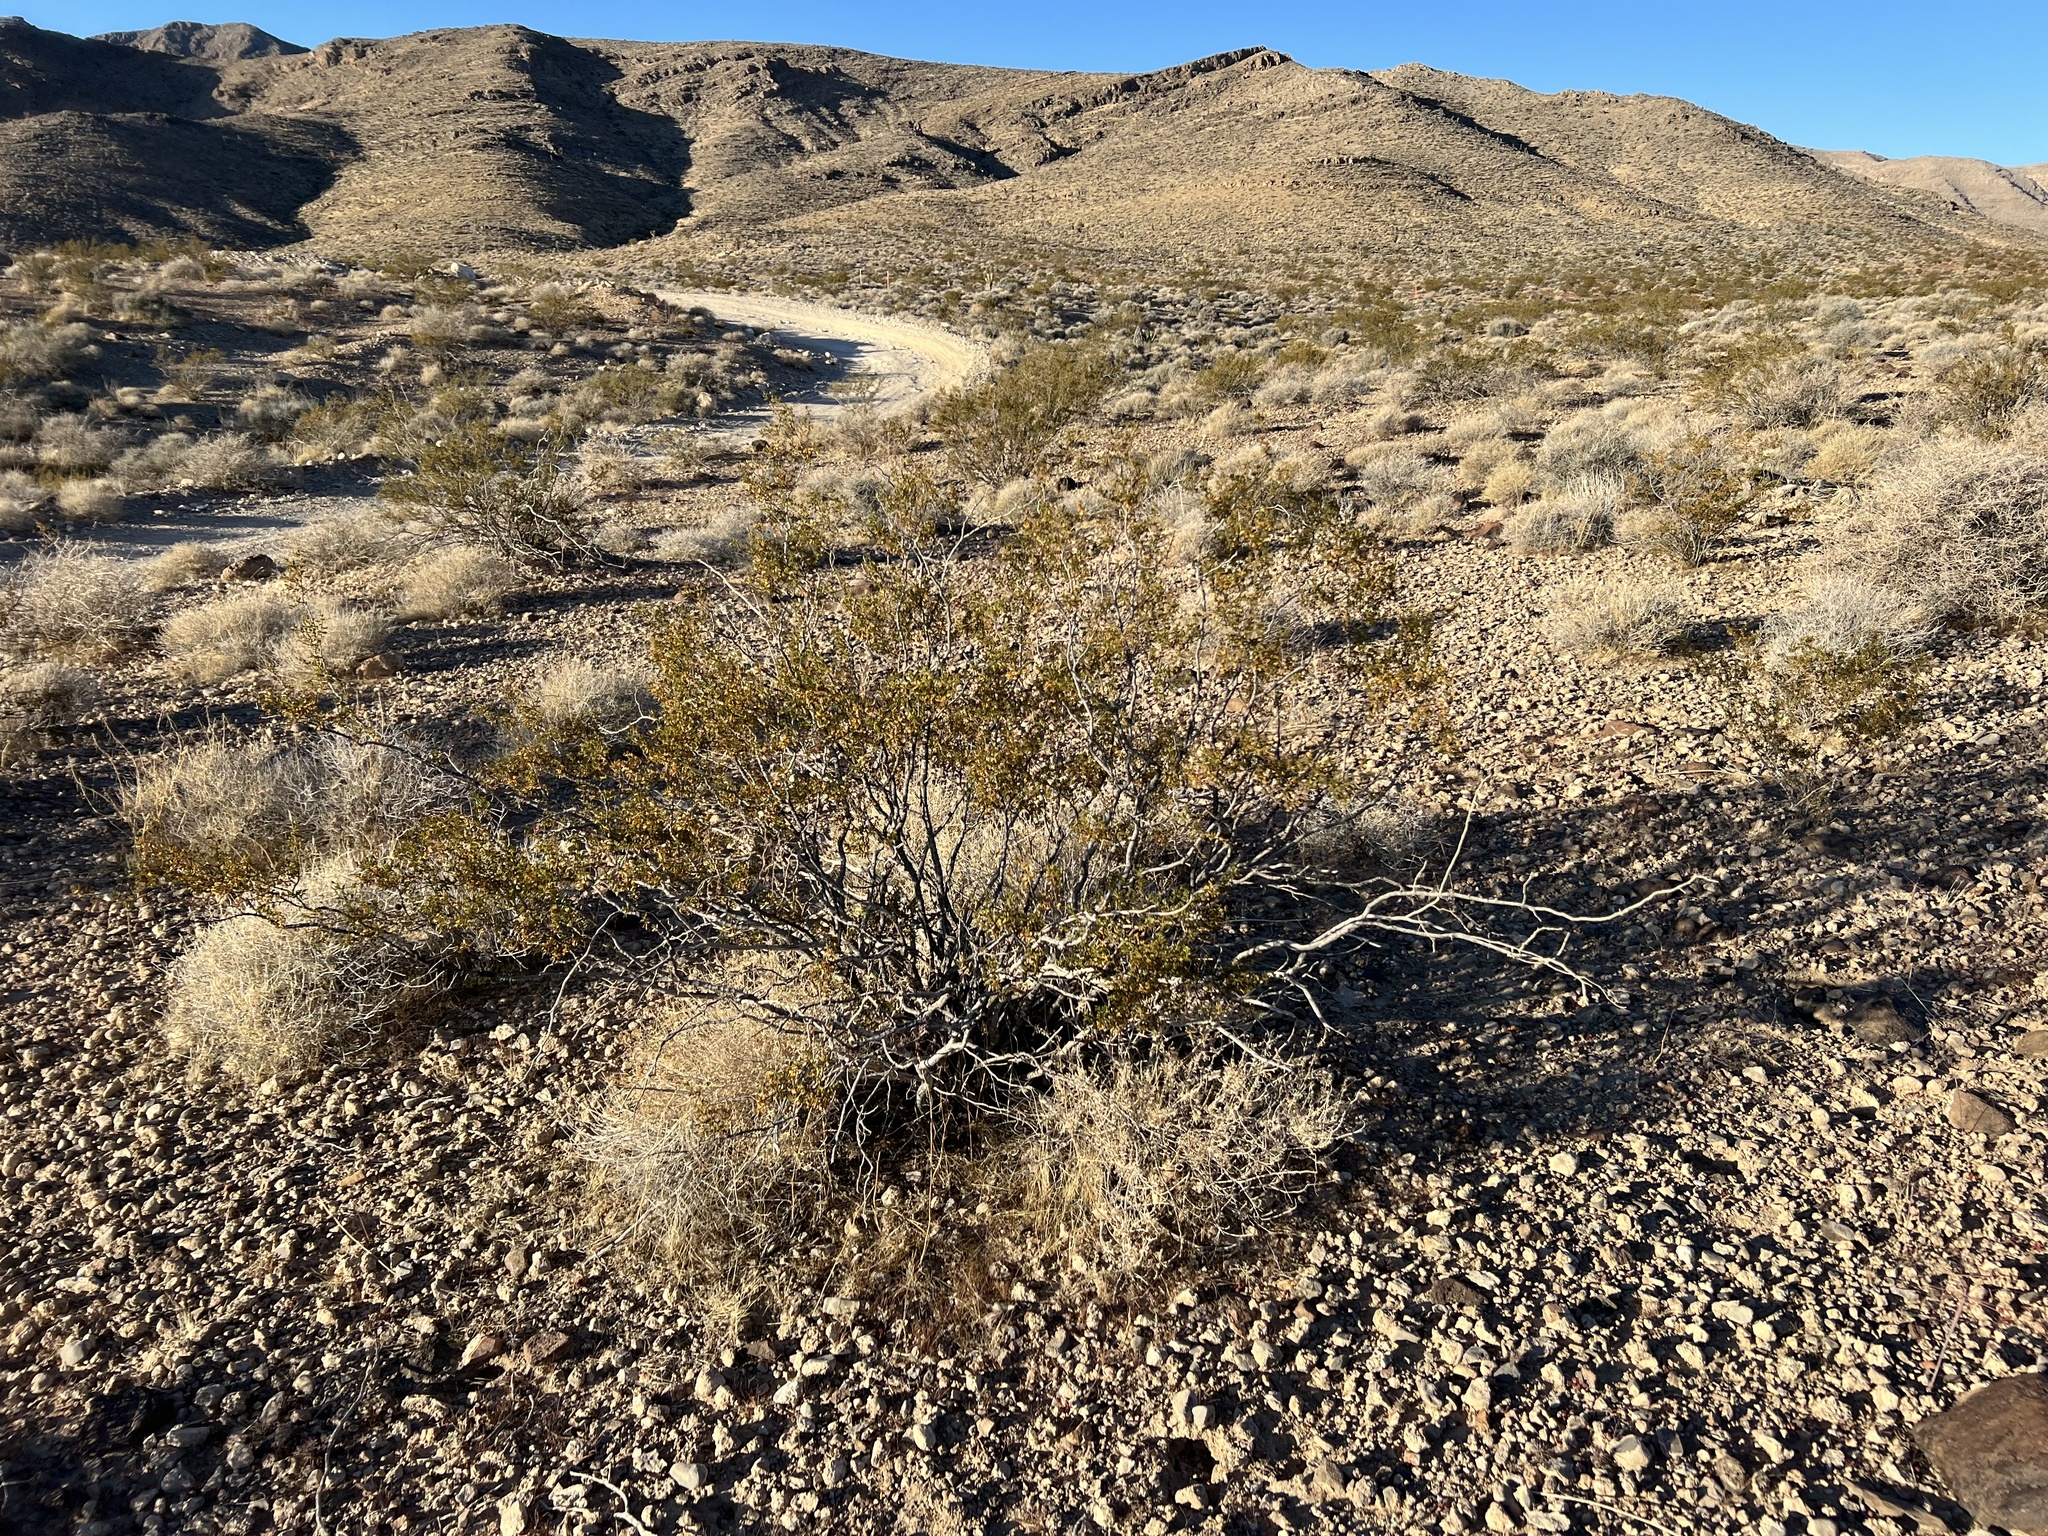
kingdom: Plantae
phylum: Tracheophyta
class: Magnoliopsida
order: Zygophyllales
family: Zygophyllaceae
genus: Larrea
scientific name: Larrea tridentata
